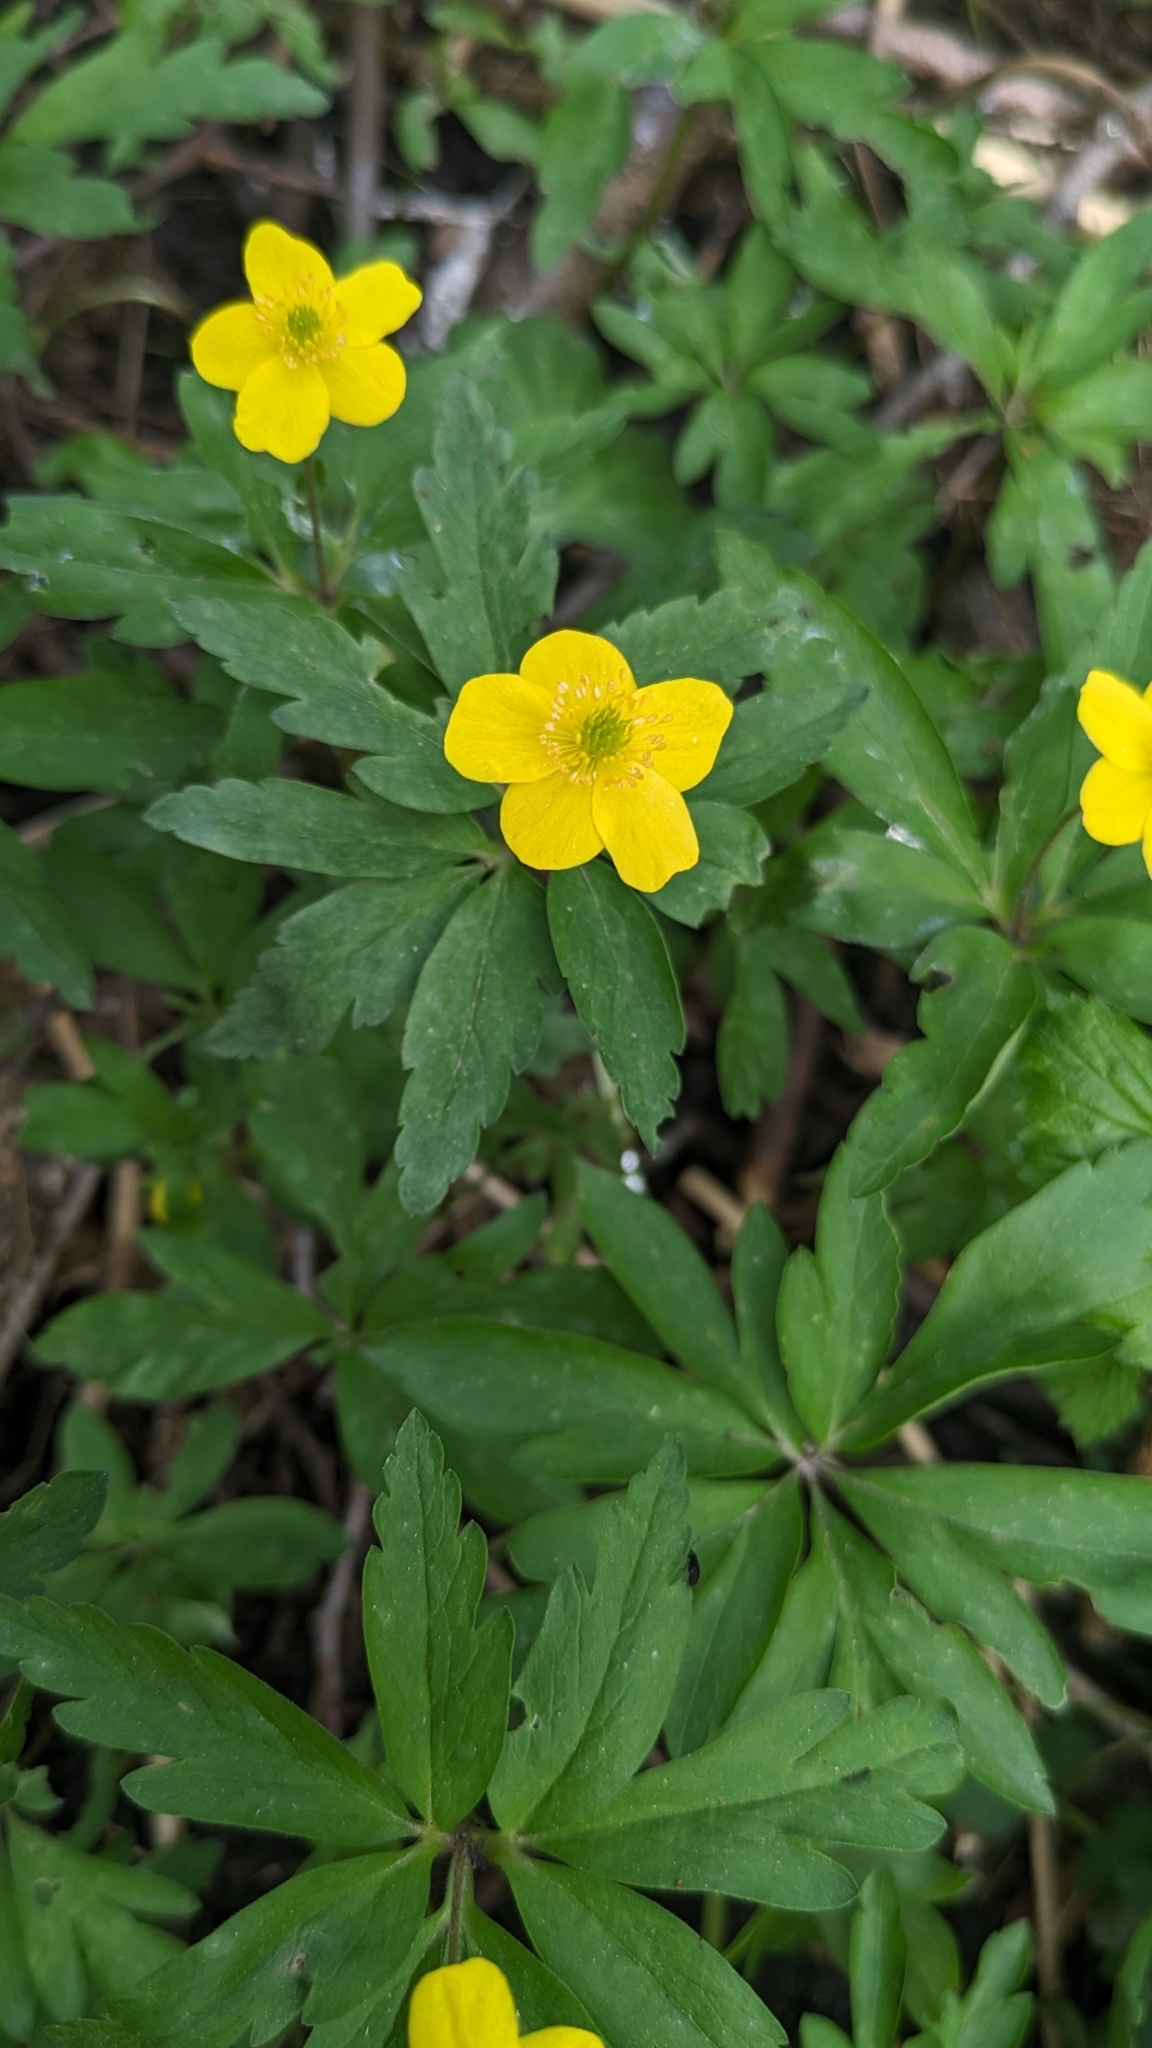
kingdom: Plantae
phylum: Tracheophyta
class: Magnoliopsida
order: Ranunculales
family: Ranunculaceae
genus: Anemone
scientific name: Anemone ranunculoides
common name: Yellow anemone
